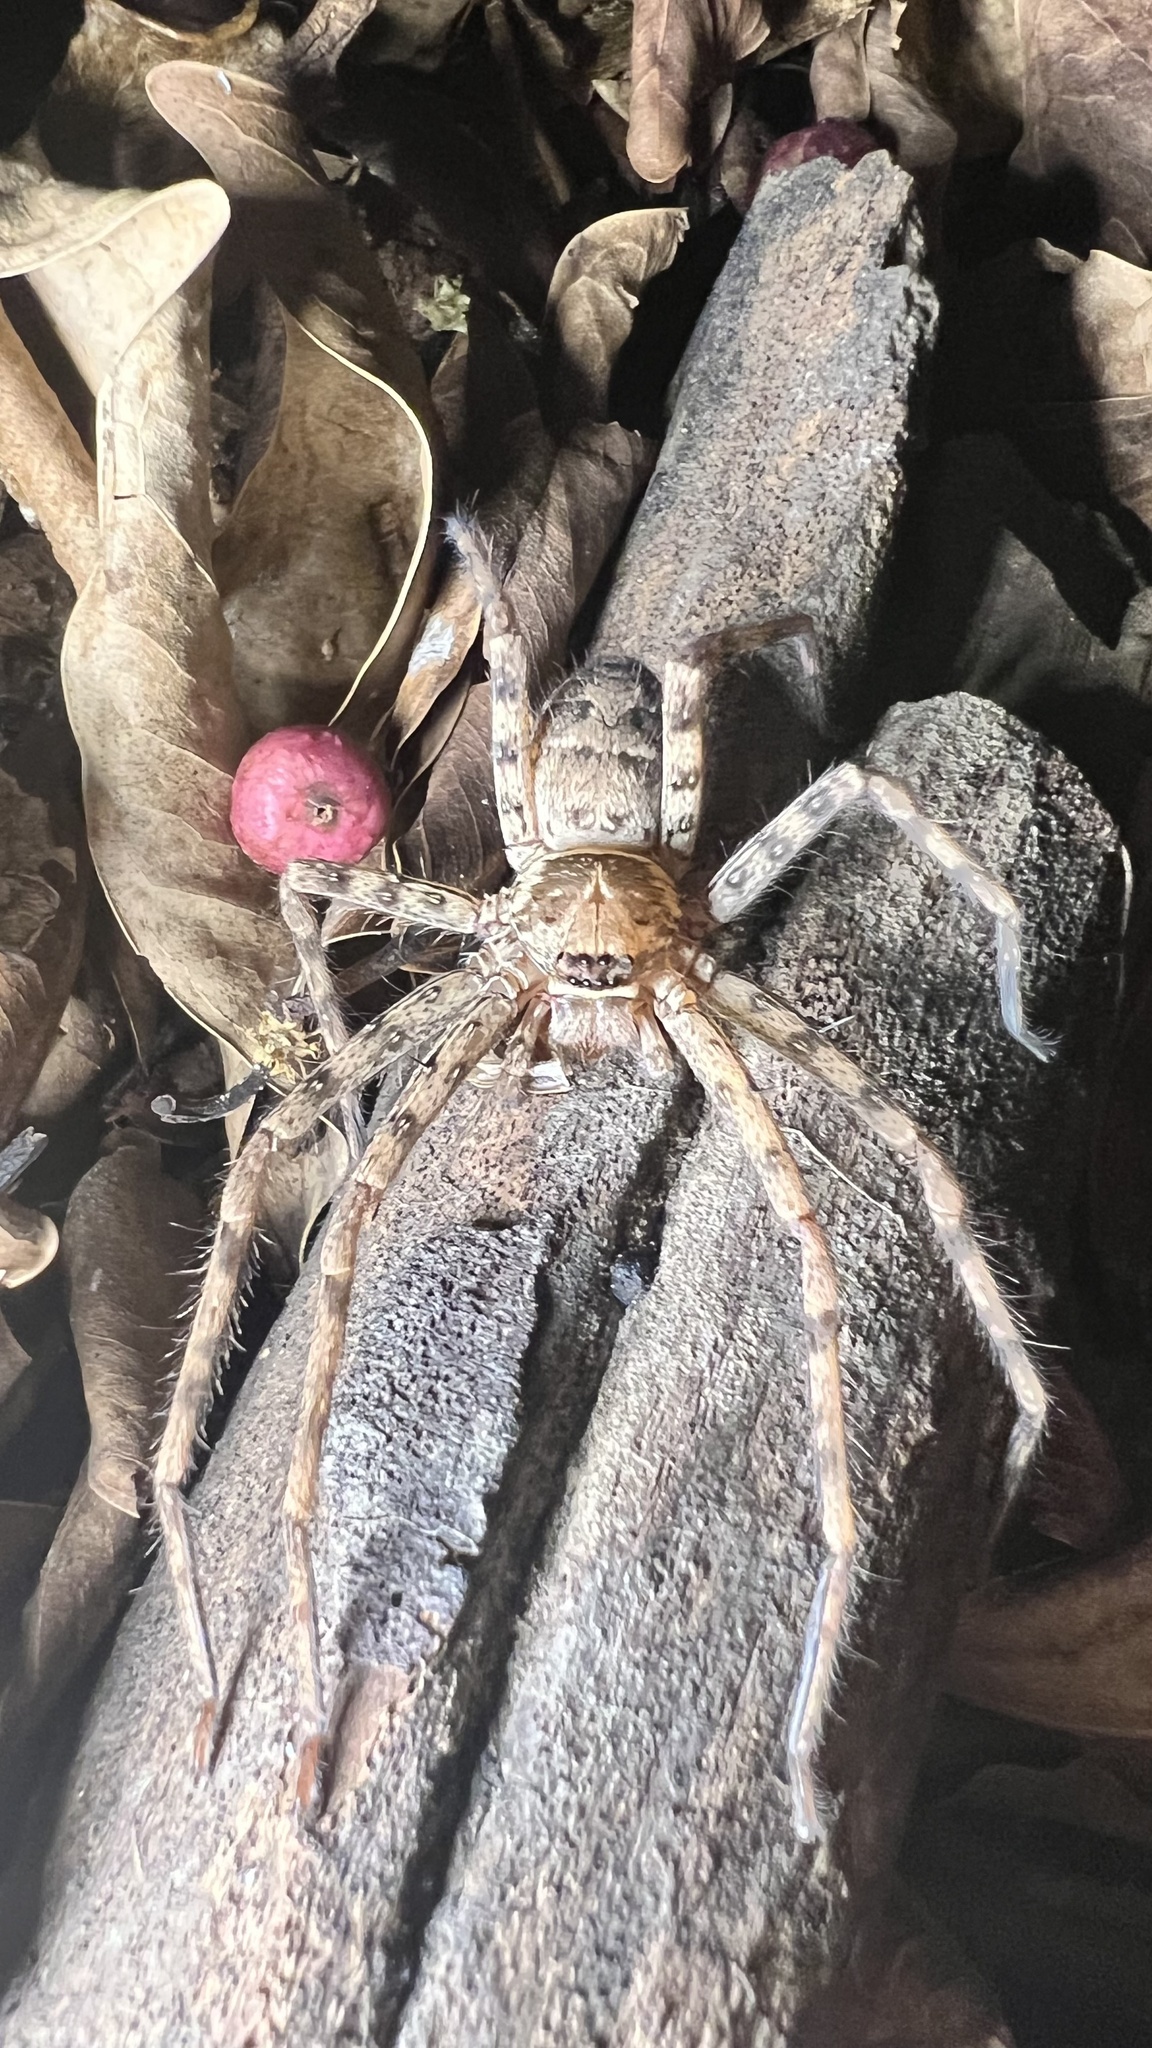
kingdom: Animalia
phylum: Arthropoda
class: Arachnida
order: Araneae
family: Sparassidae
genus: Heteropoda
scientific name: Heteropoda venatoria
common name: Huntsman spider
